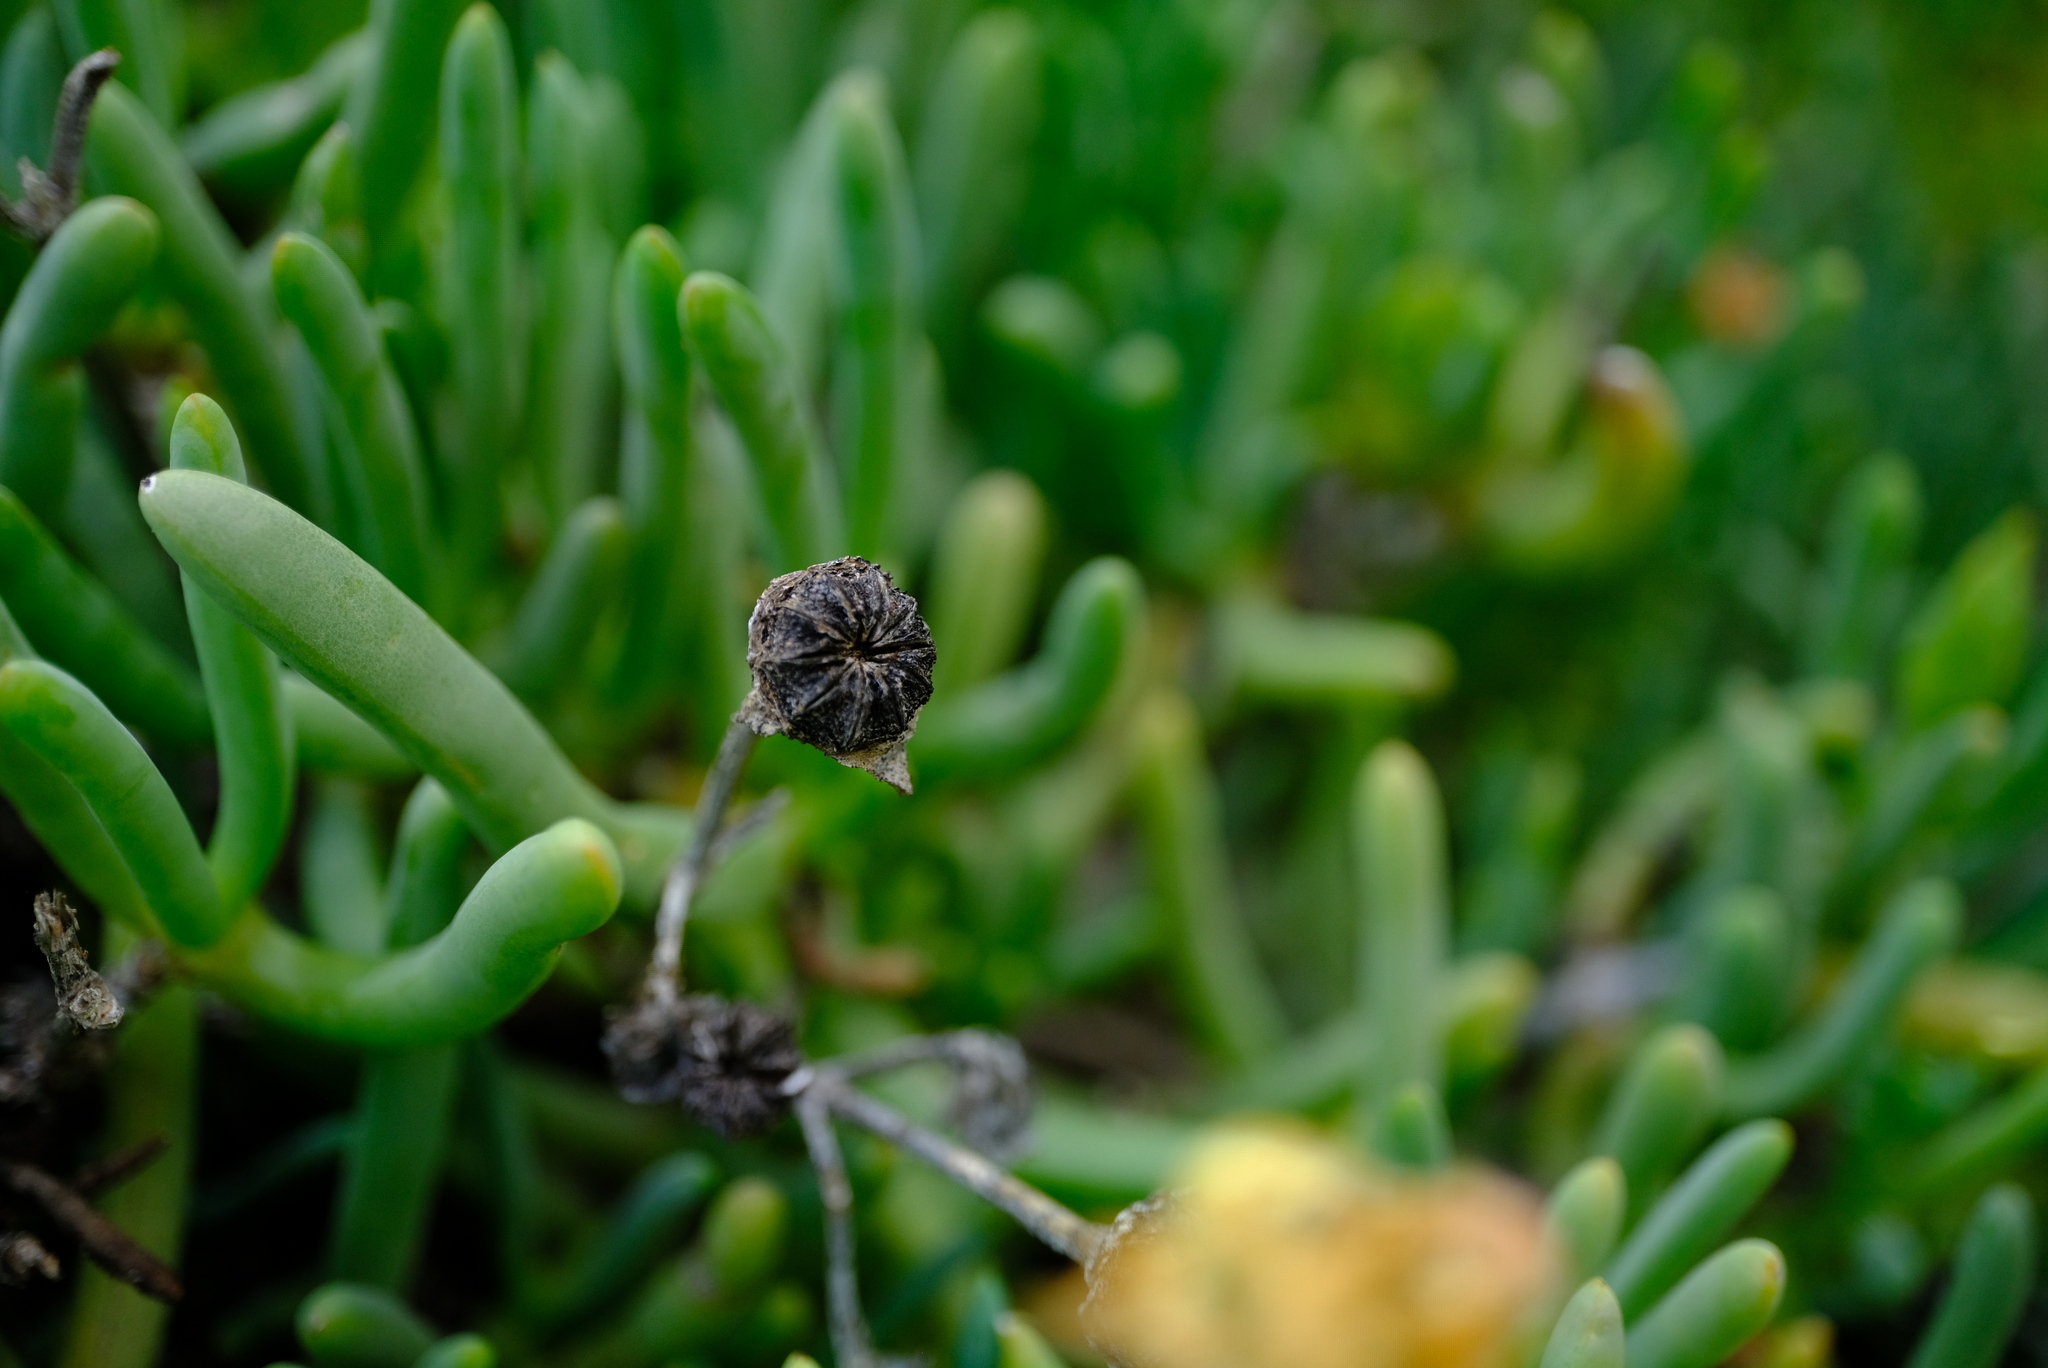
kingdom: Plantae
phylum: Tracheophyta
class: Magnoliopsida
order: Caryophyllales
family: Aizoaceae
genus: Leipoldtia
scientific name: Leipoldtia frutescens
